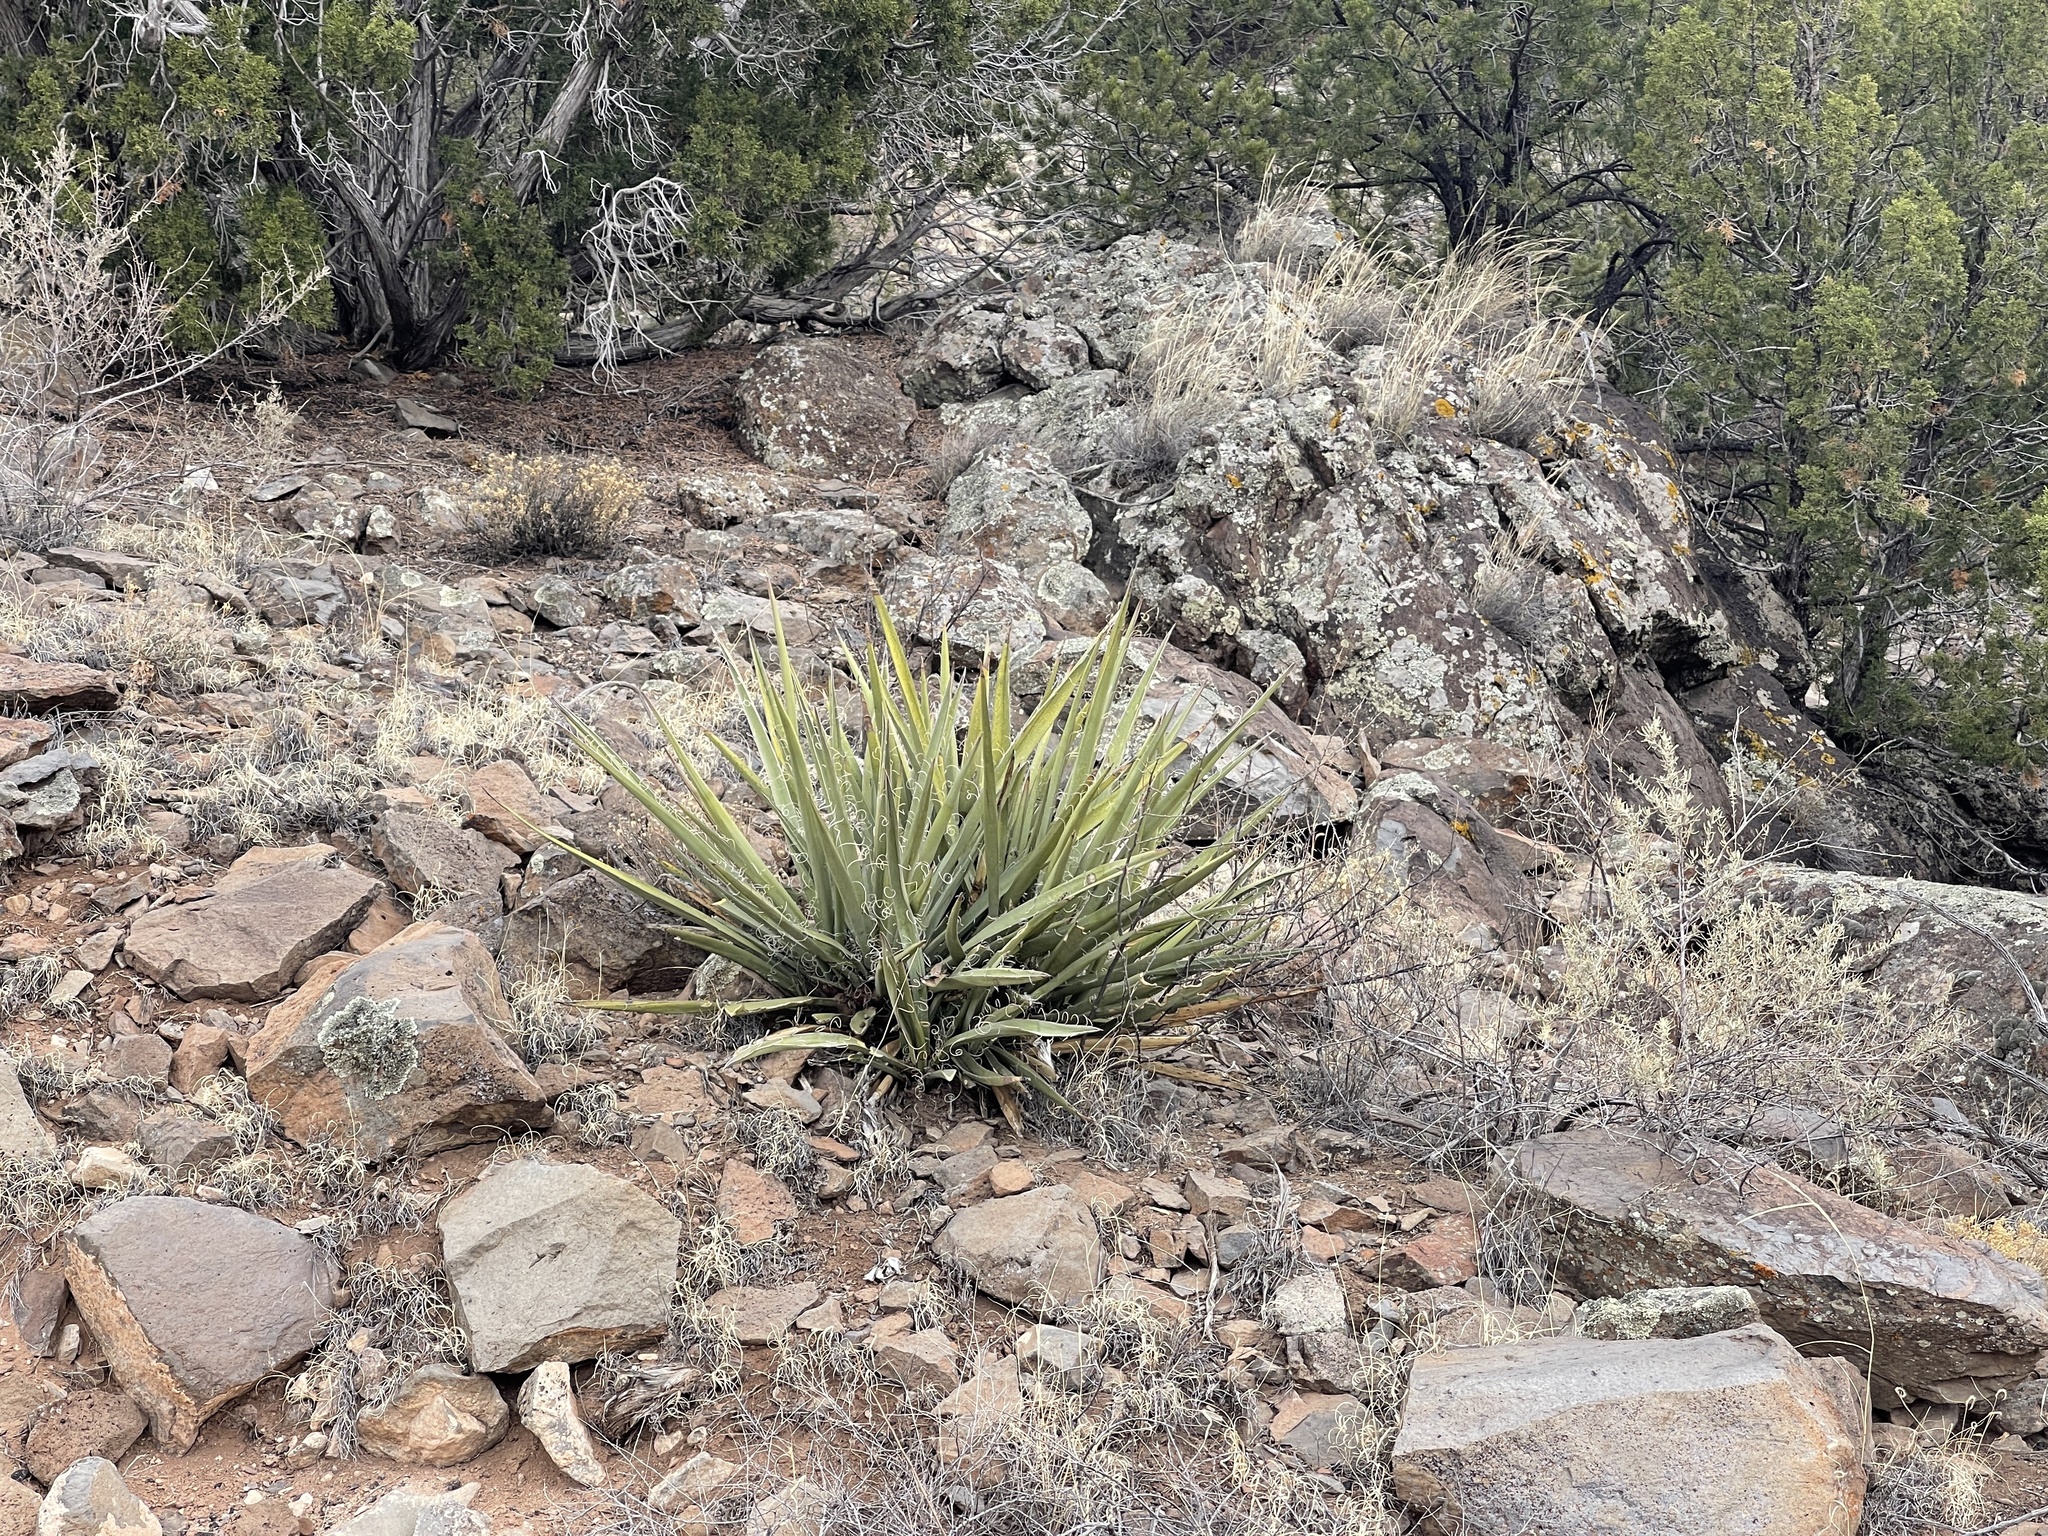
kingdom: Plantae
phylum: Tracheophyta
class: Liliopsida
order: Asparagales
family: Asparagaceae
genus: Yucca
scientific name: Yucca baccata
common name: Banana yucca
